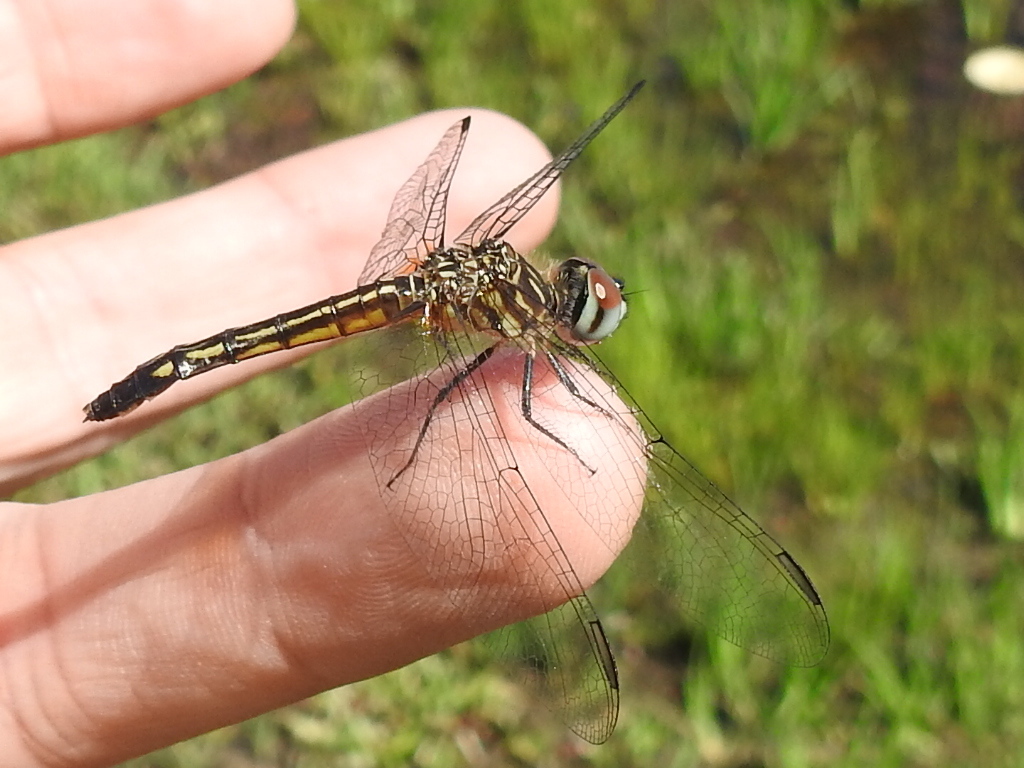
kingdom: Animalia
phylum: Arthropoda
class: Insecta
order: Odonata
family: Libellulidae
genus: Pachydiplax
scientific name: Pachydiplax longipennis
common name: Blue dasher
